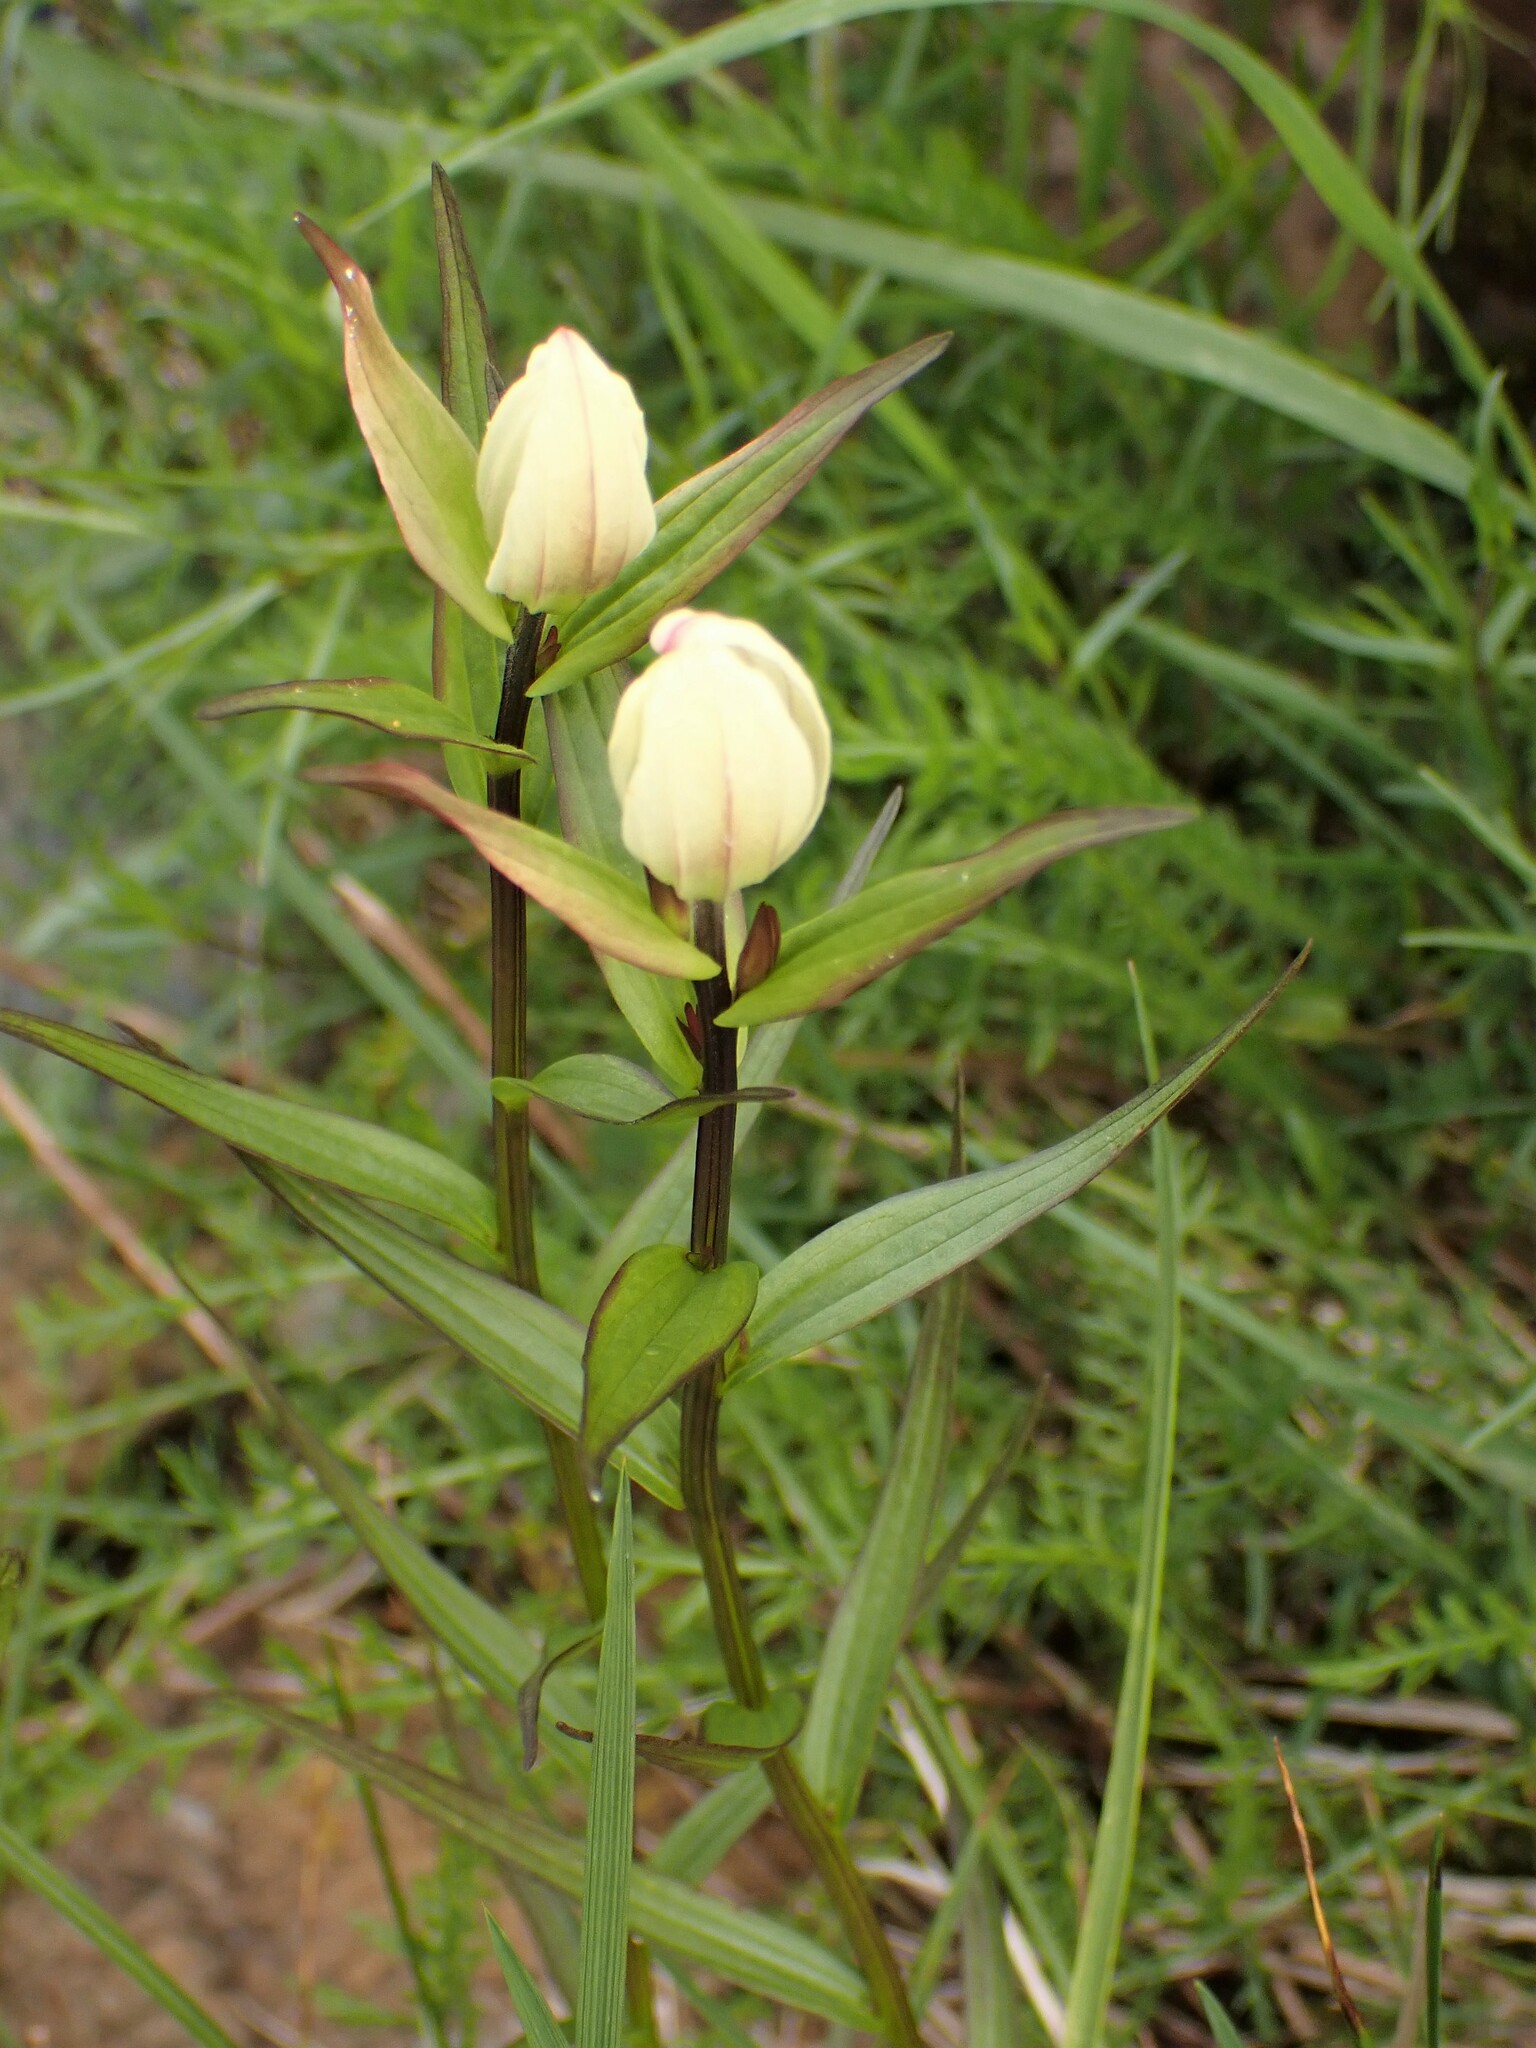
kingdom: Plantae
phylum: Tracheophyta
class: Magnoliopsida
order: Lamiales
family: Orobanchaceae
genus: Castilleja
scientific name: Castilleja septentrionalis
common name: Northeastern paintbrush
